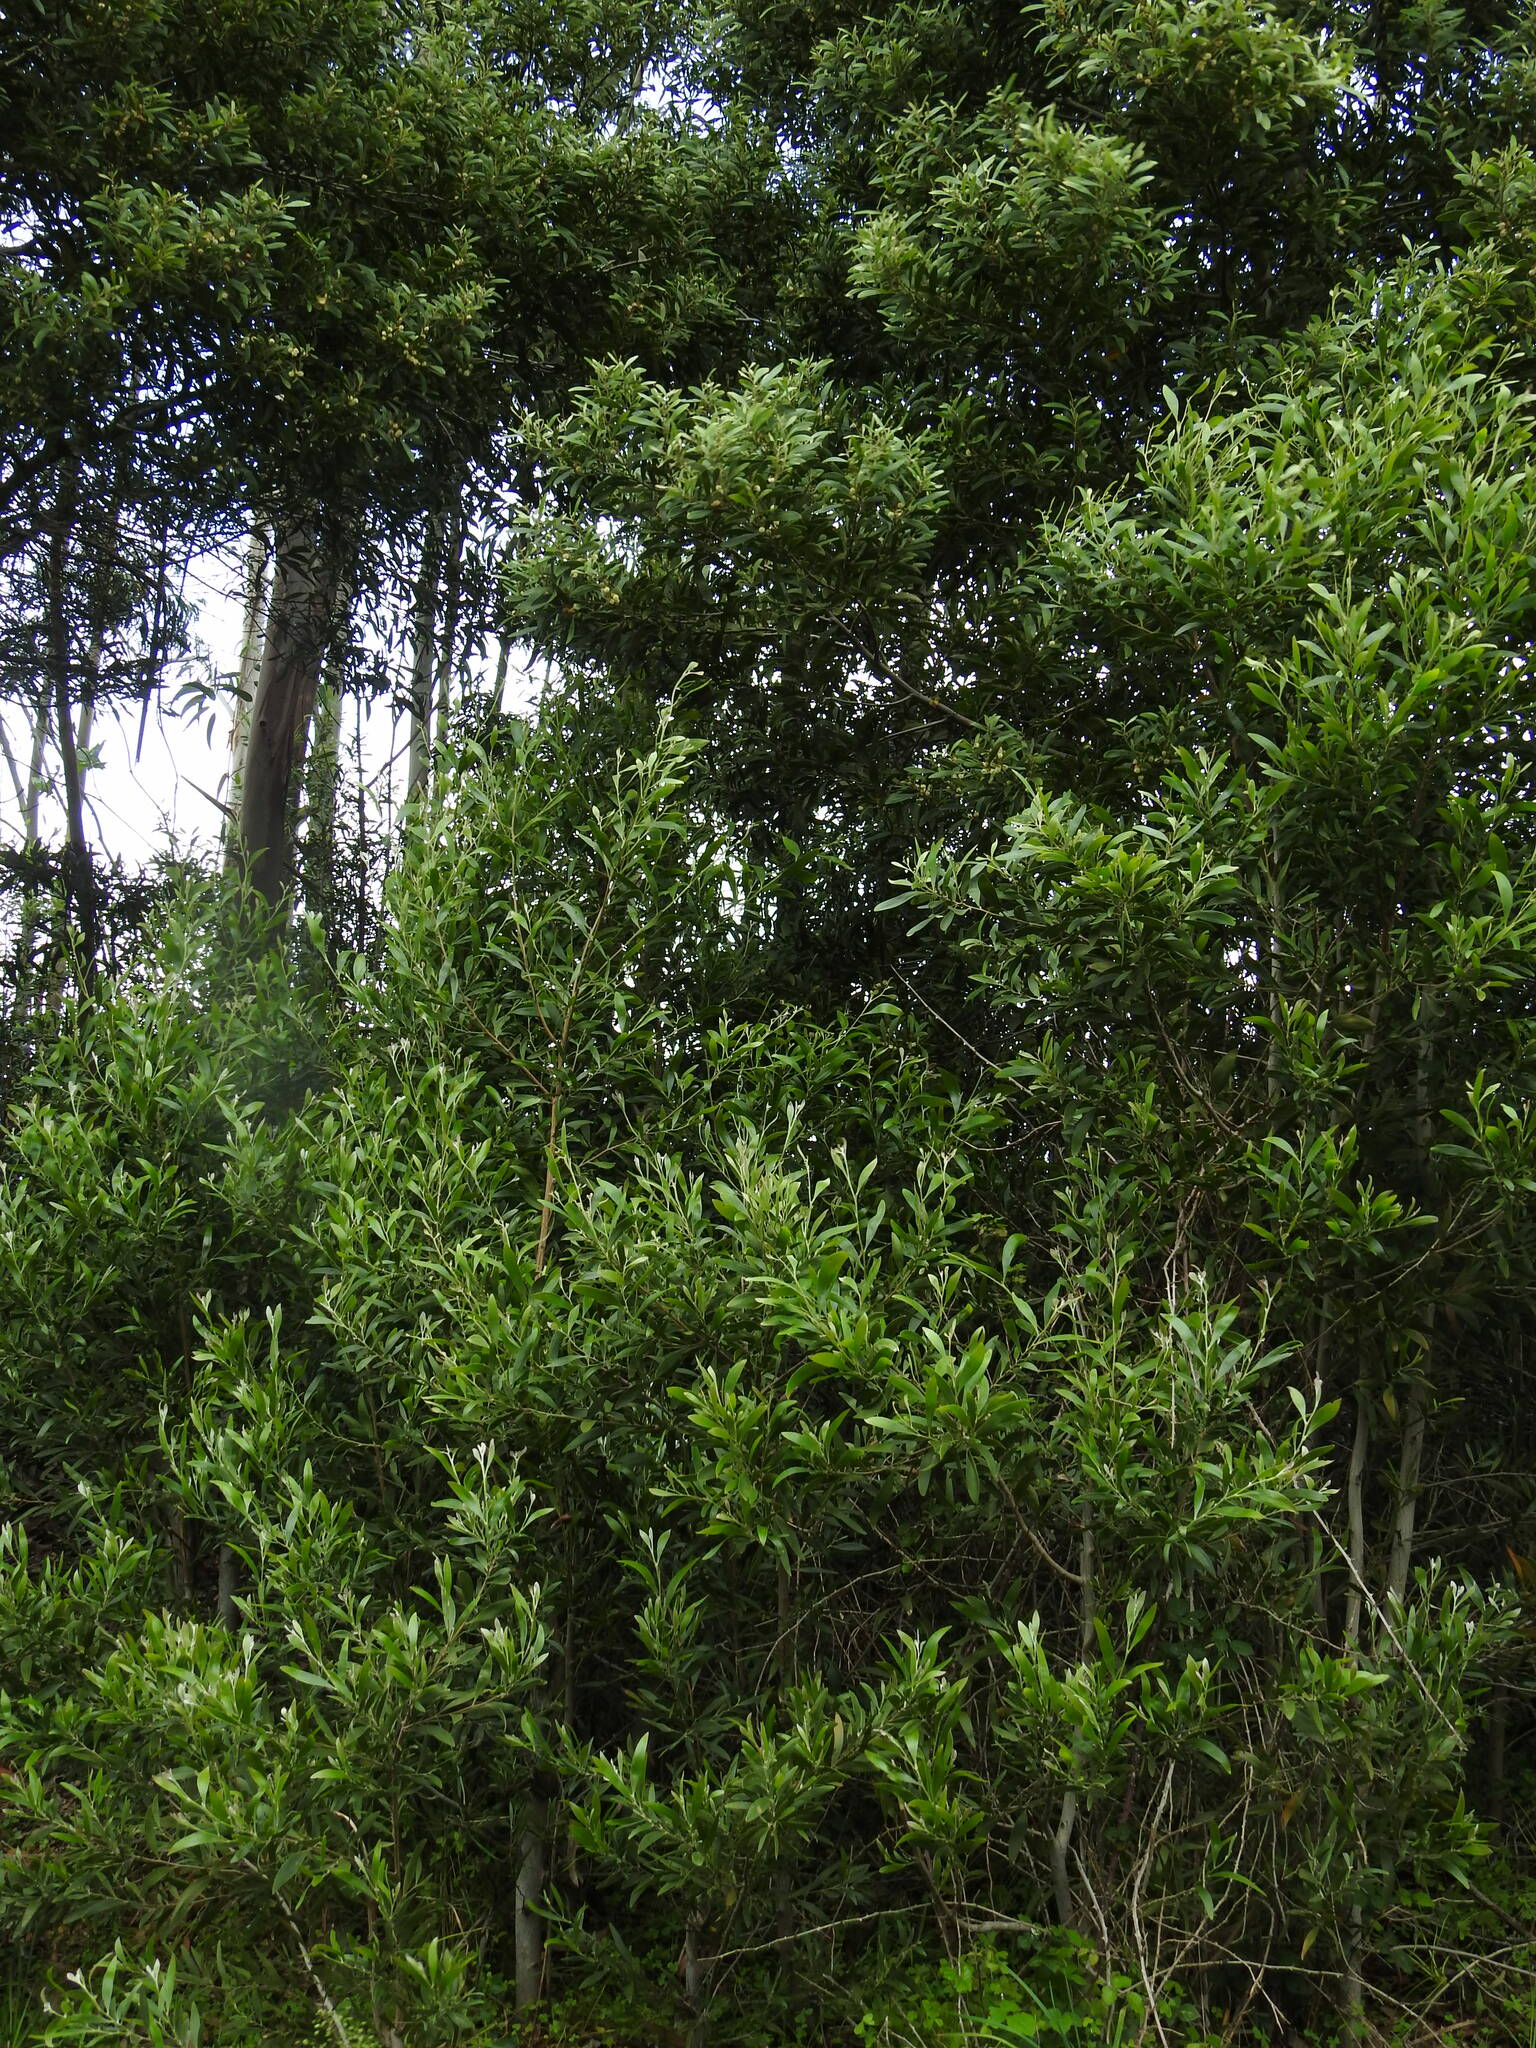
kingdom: Plantae
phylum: Tracheophyta
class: Magnoliopsida
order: Fabales
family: Fabaceae
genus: Acacia
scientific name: Acacia melanoxylon
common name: Blackwood
